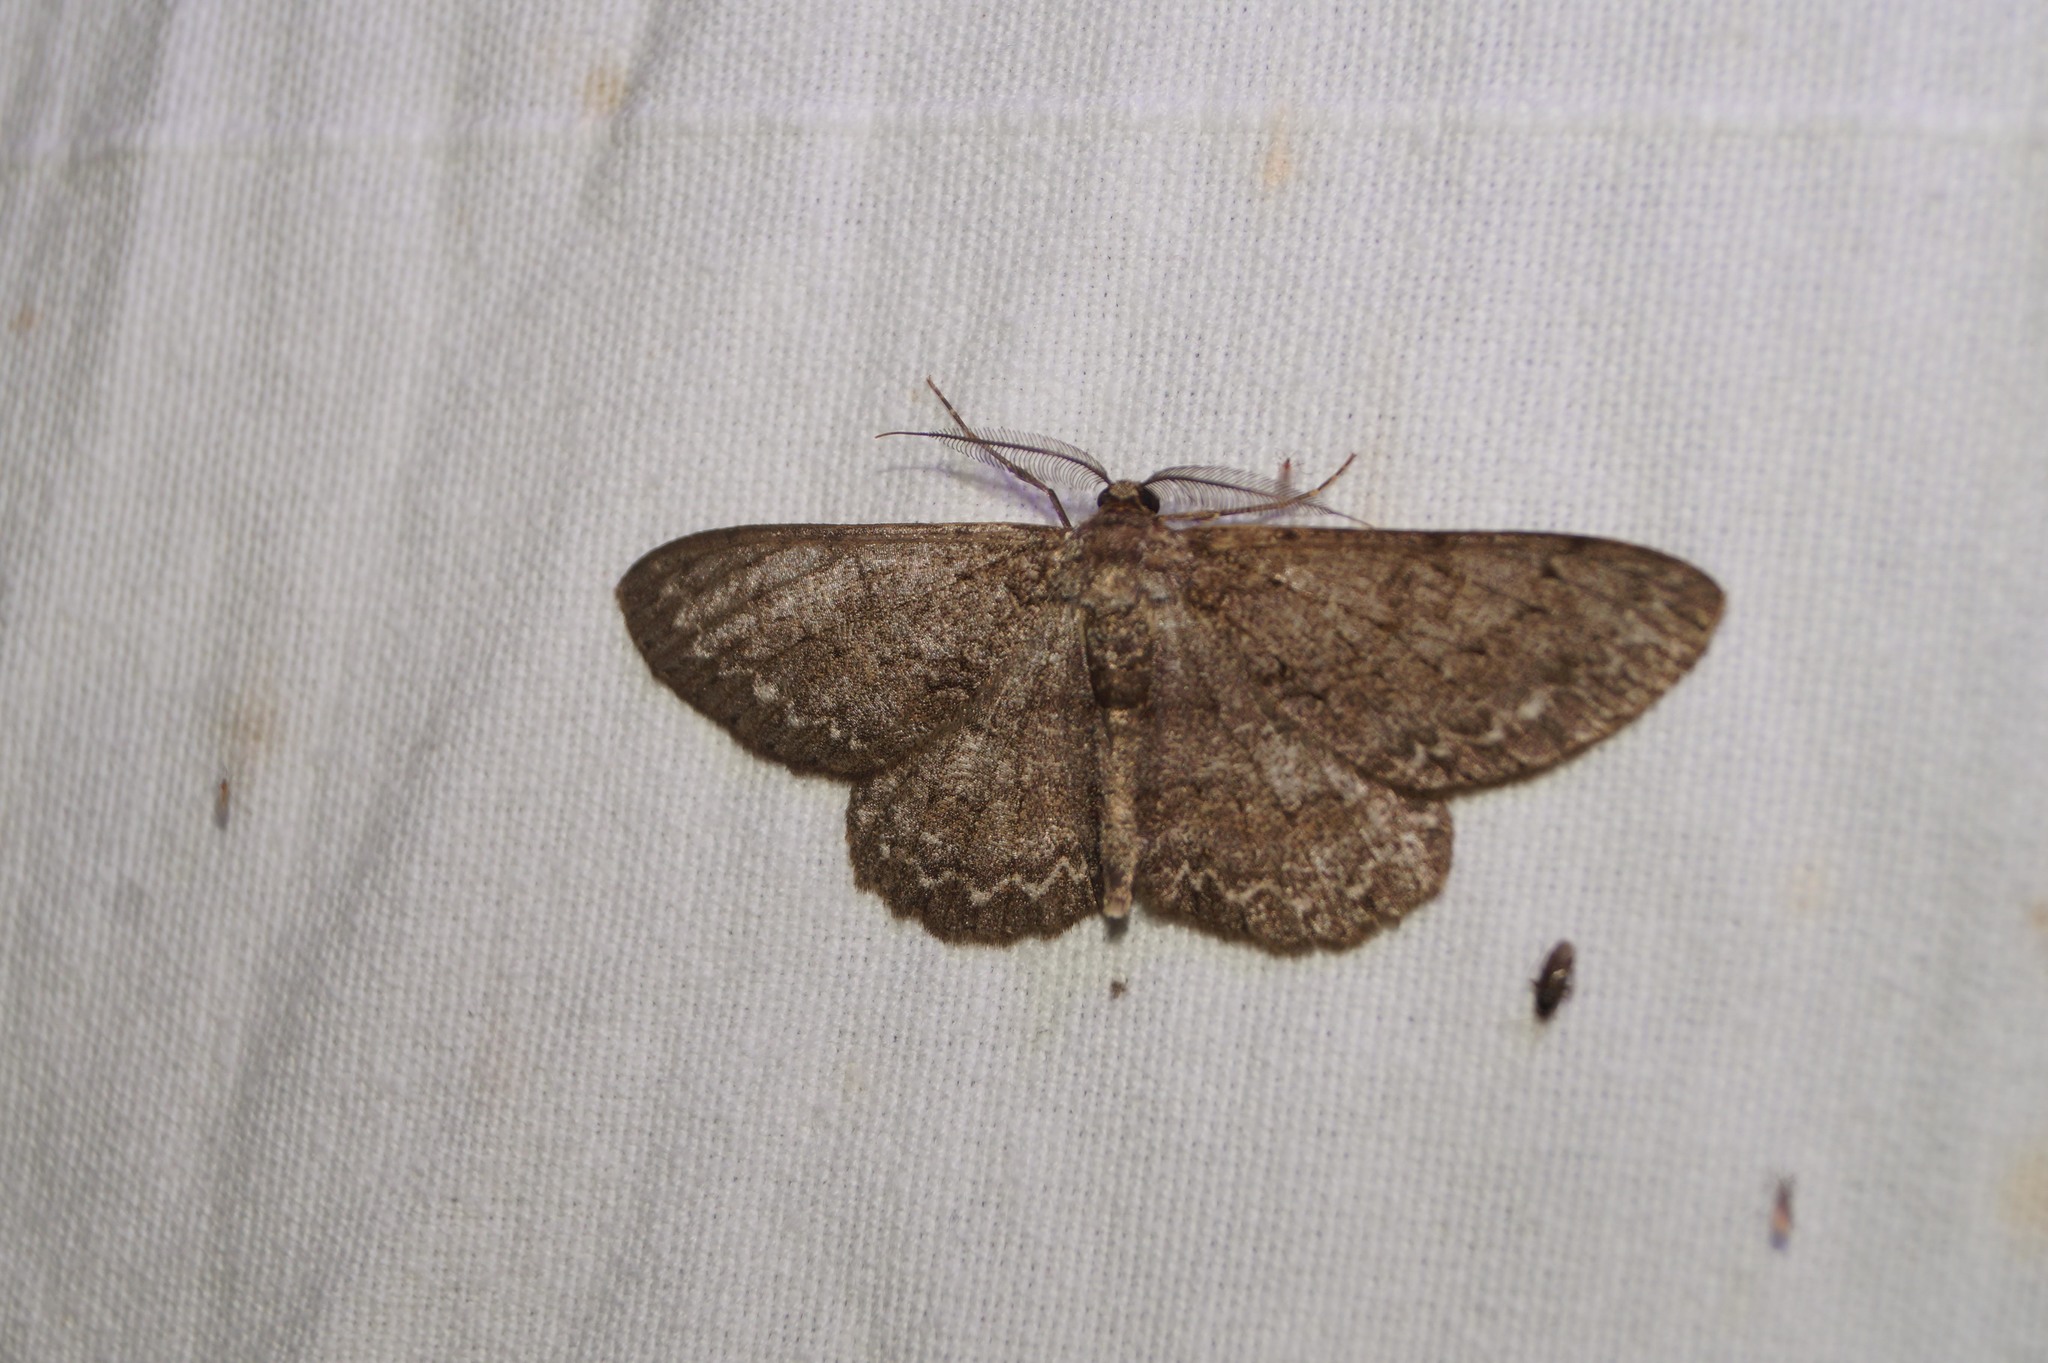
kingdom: Animalia
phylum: Arthropoda
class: Insecta
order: Lepidoptera
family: Geometridae
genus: Hypomecis
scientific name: Hypomecis punctinalis
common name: Pale oak beauty
